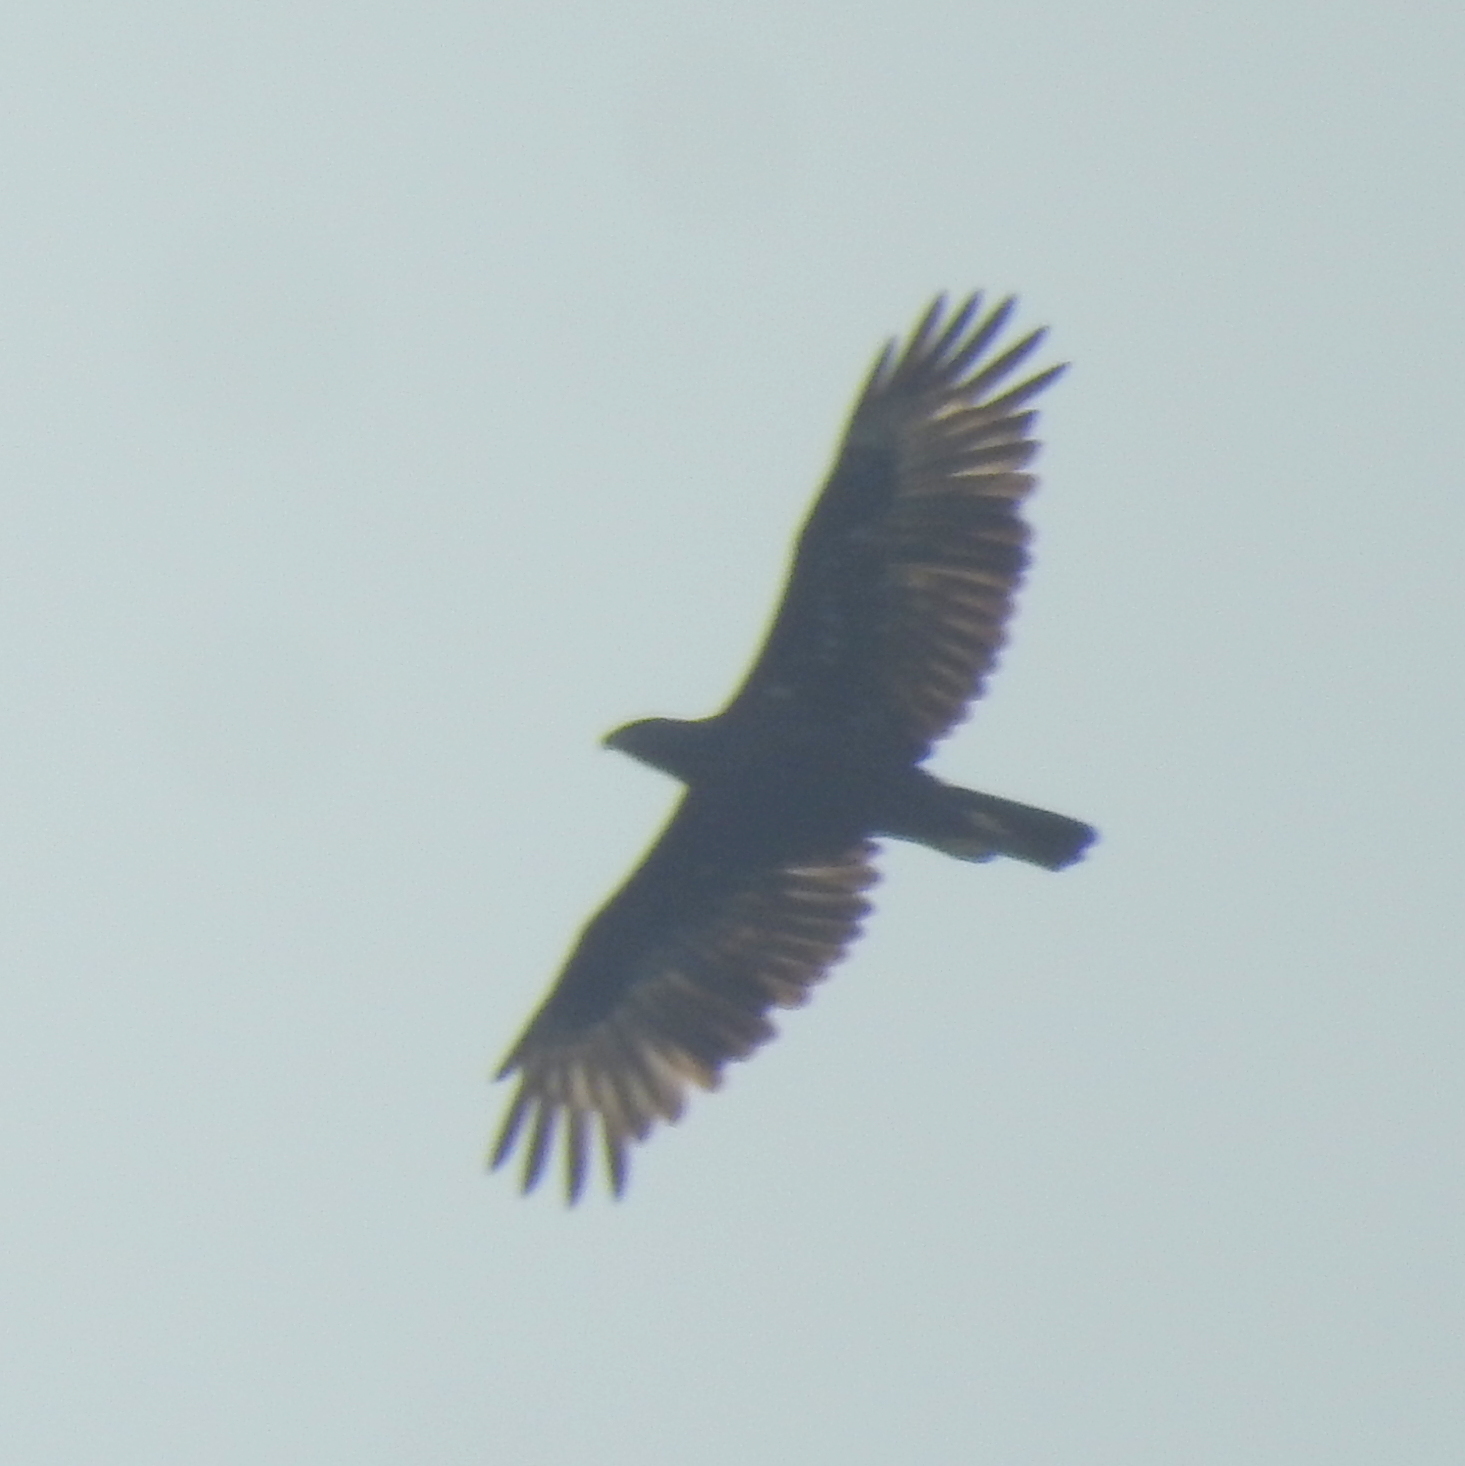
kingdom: Animalia
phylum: Chordata
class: Aves
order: Accipitriformes
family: Accipitridae
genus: Nisaetus
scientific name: Nisaetus cirrhatus
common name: Changeable hawk-eagle
